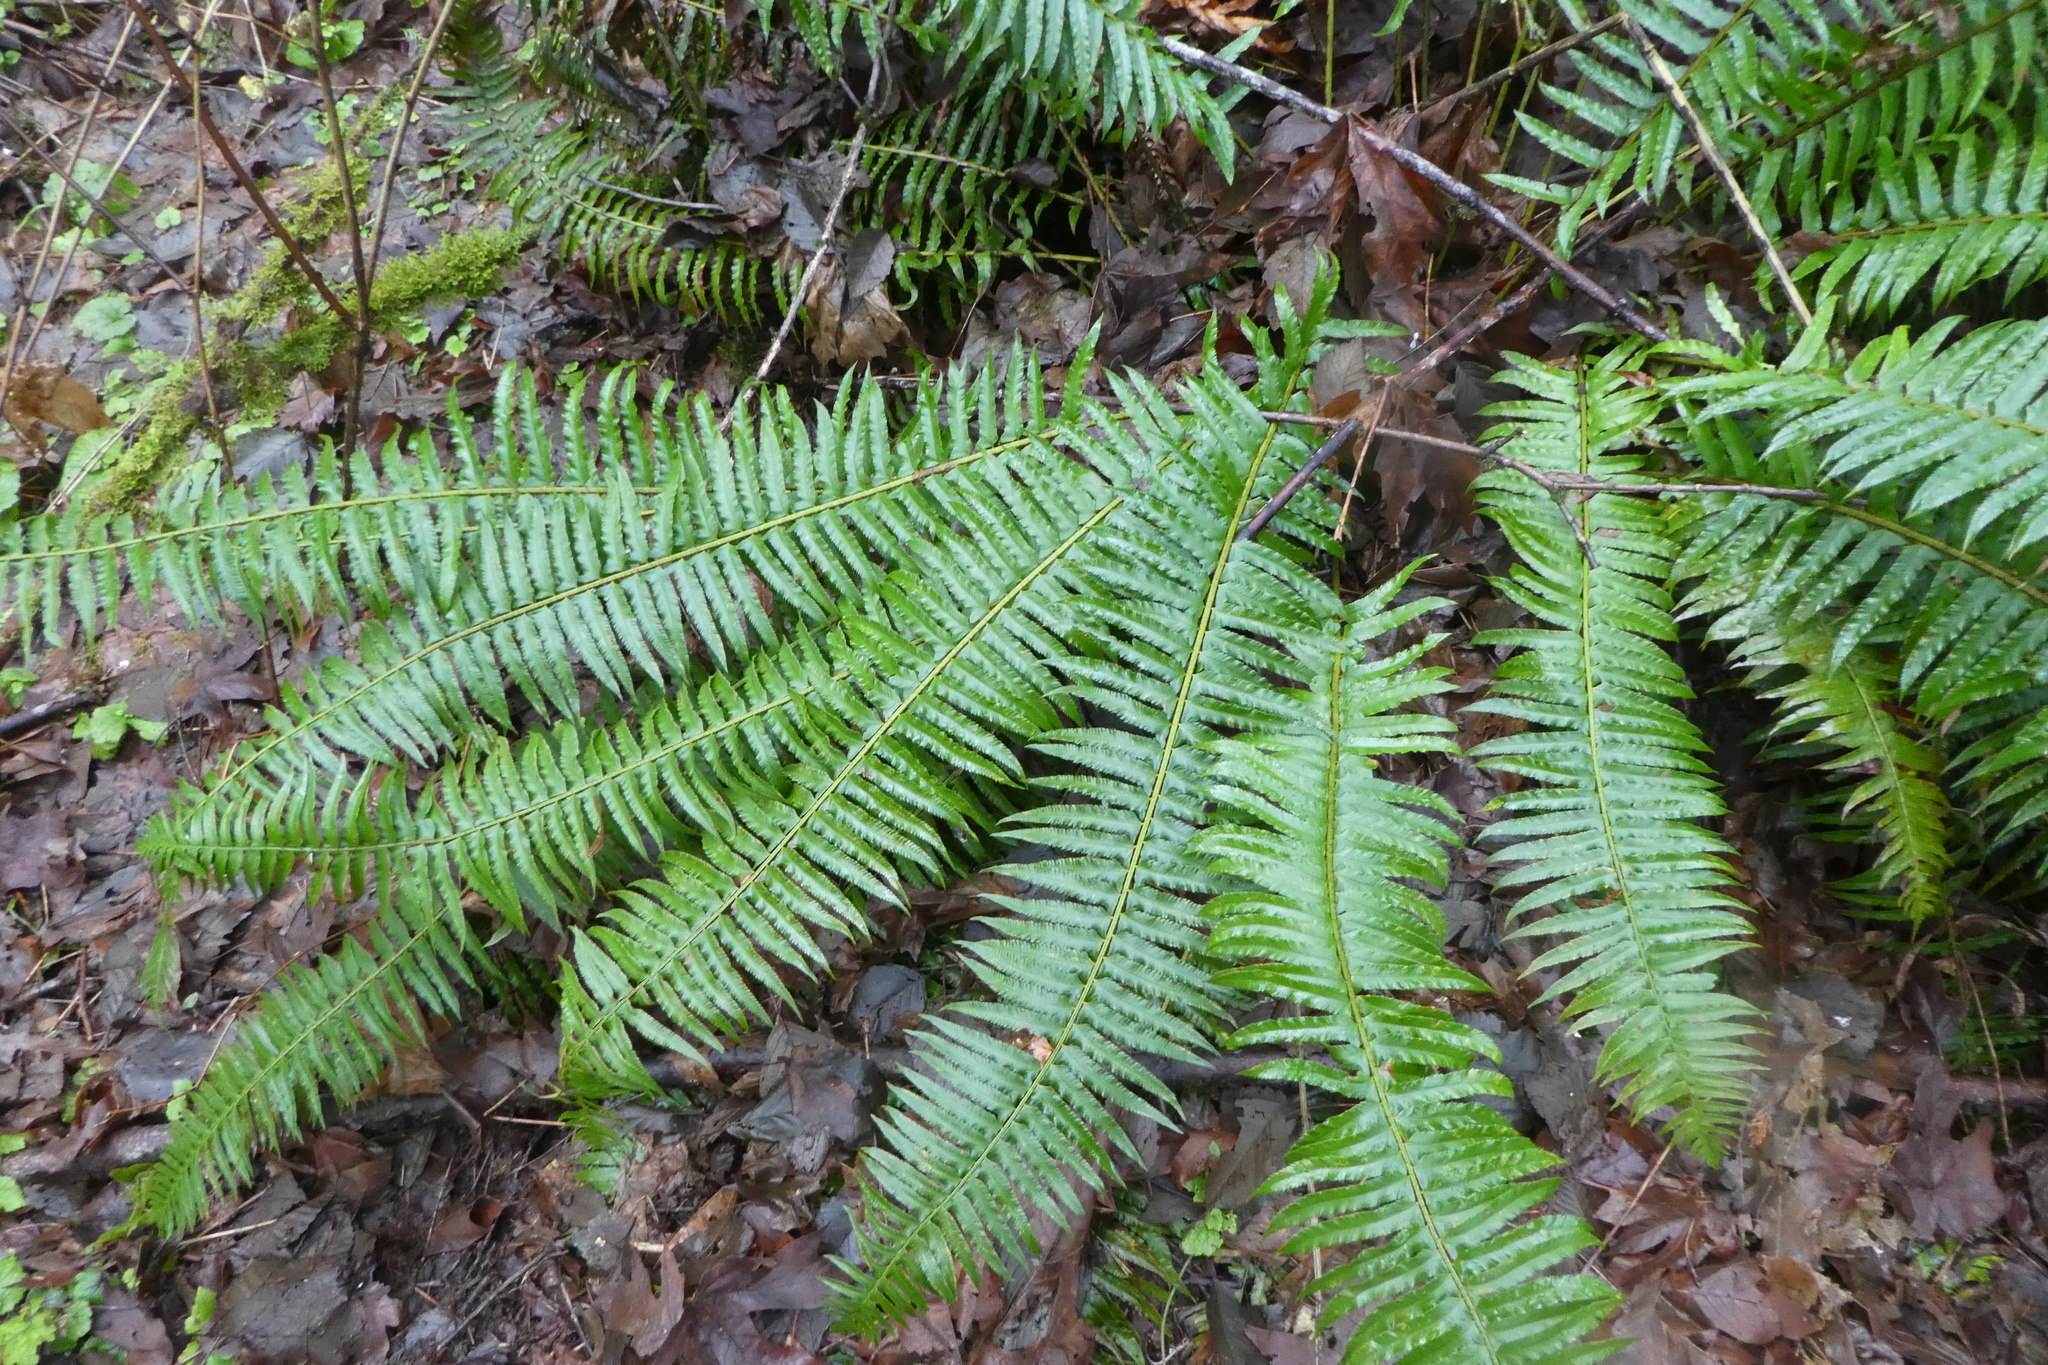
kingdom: Plantae
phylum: Tracheophyta
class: Polypodiopsida
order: Polypodiales
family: Dryopteridaceae
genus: Polystichum
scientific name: Polystichum munitum
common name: Western sword-fern
